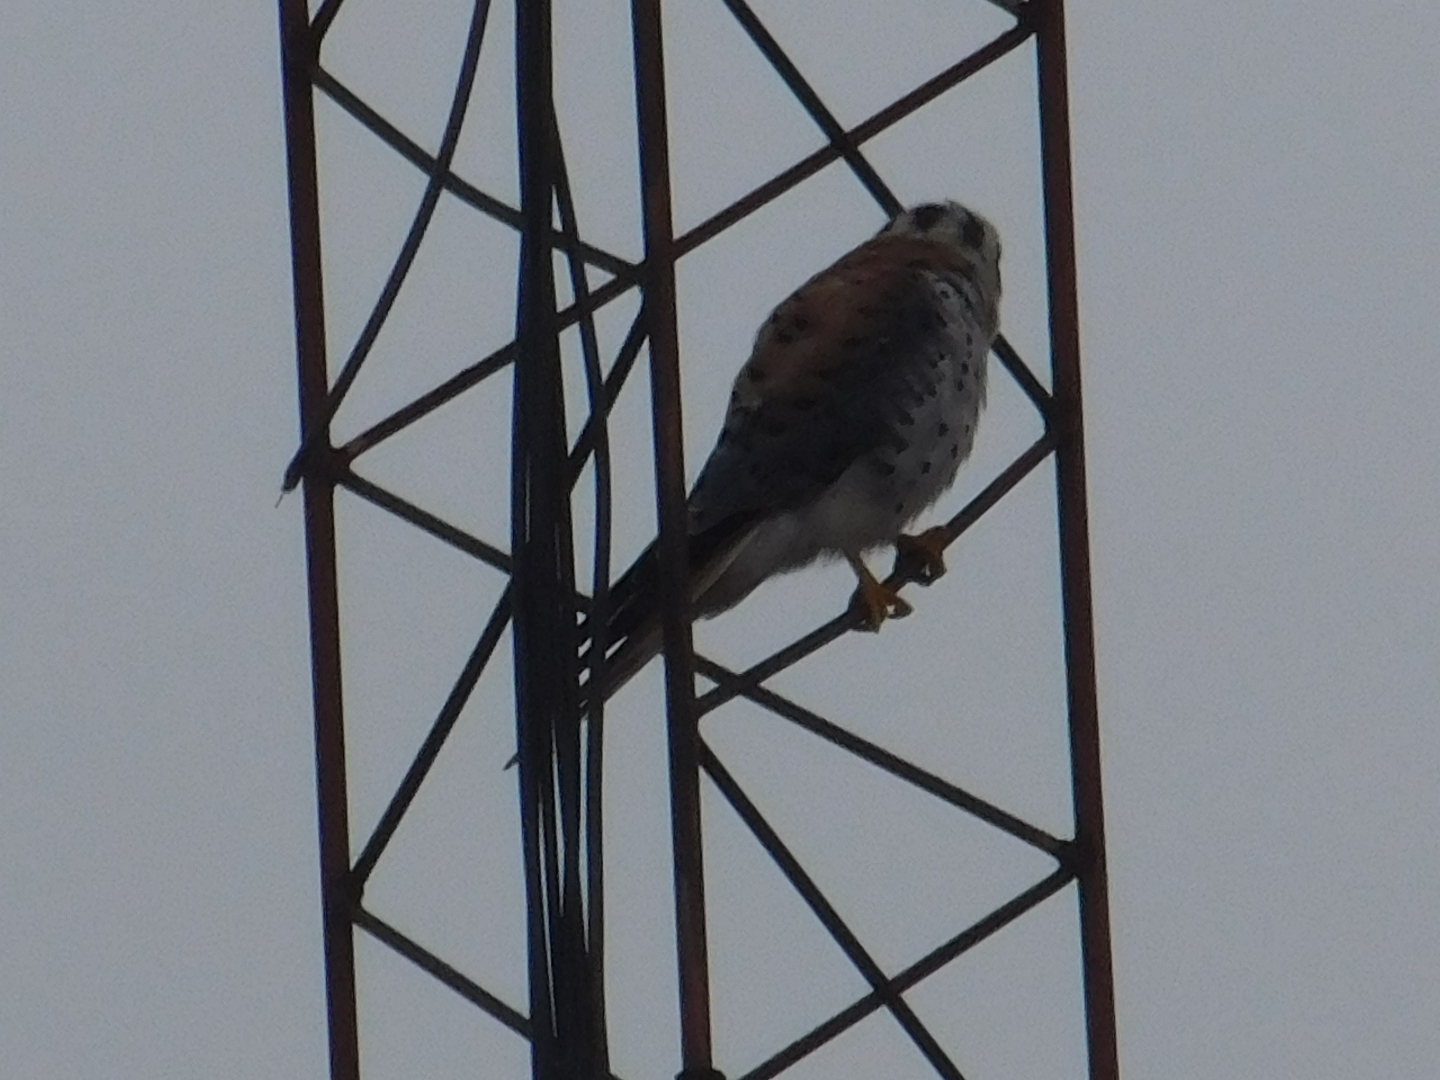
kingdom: Animalia
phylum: Chordata
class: Aves
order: Falconiformes
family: Falconidae
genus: Falco
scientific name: Falco sparverius
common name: American kestrel
